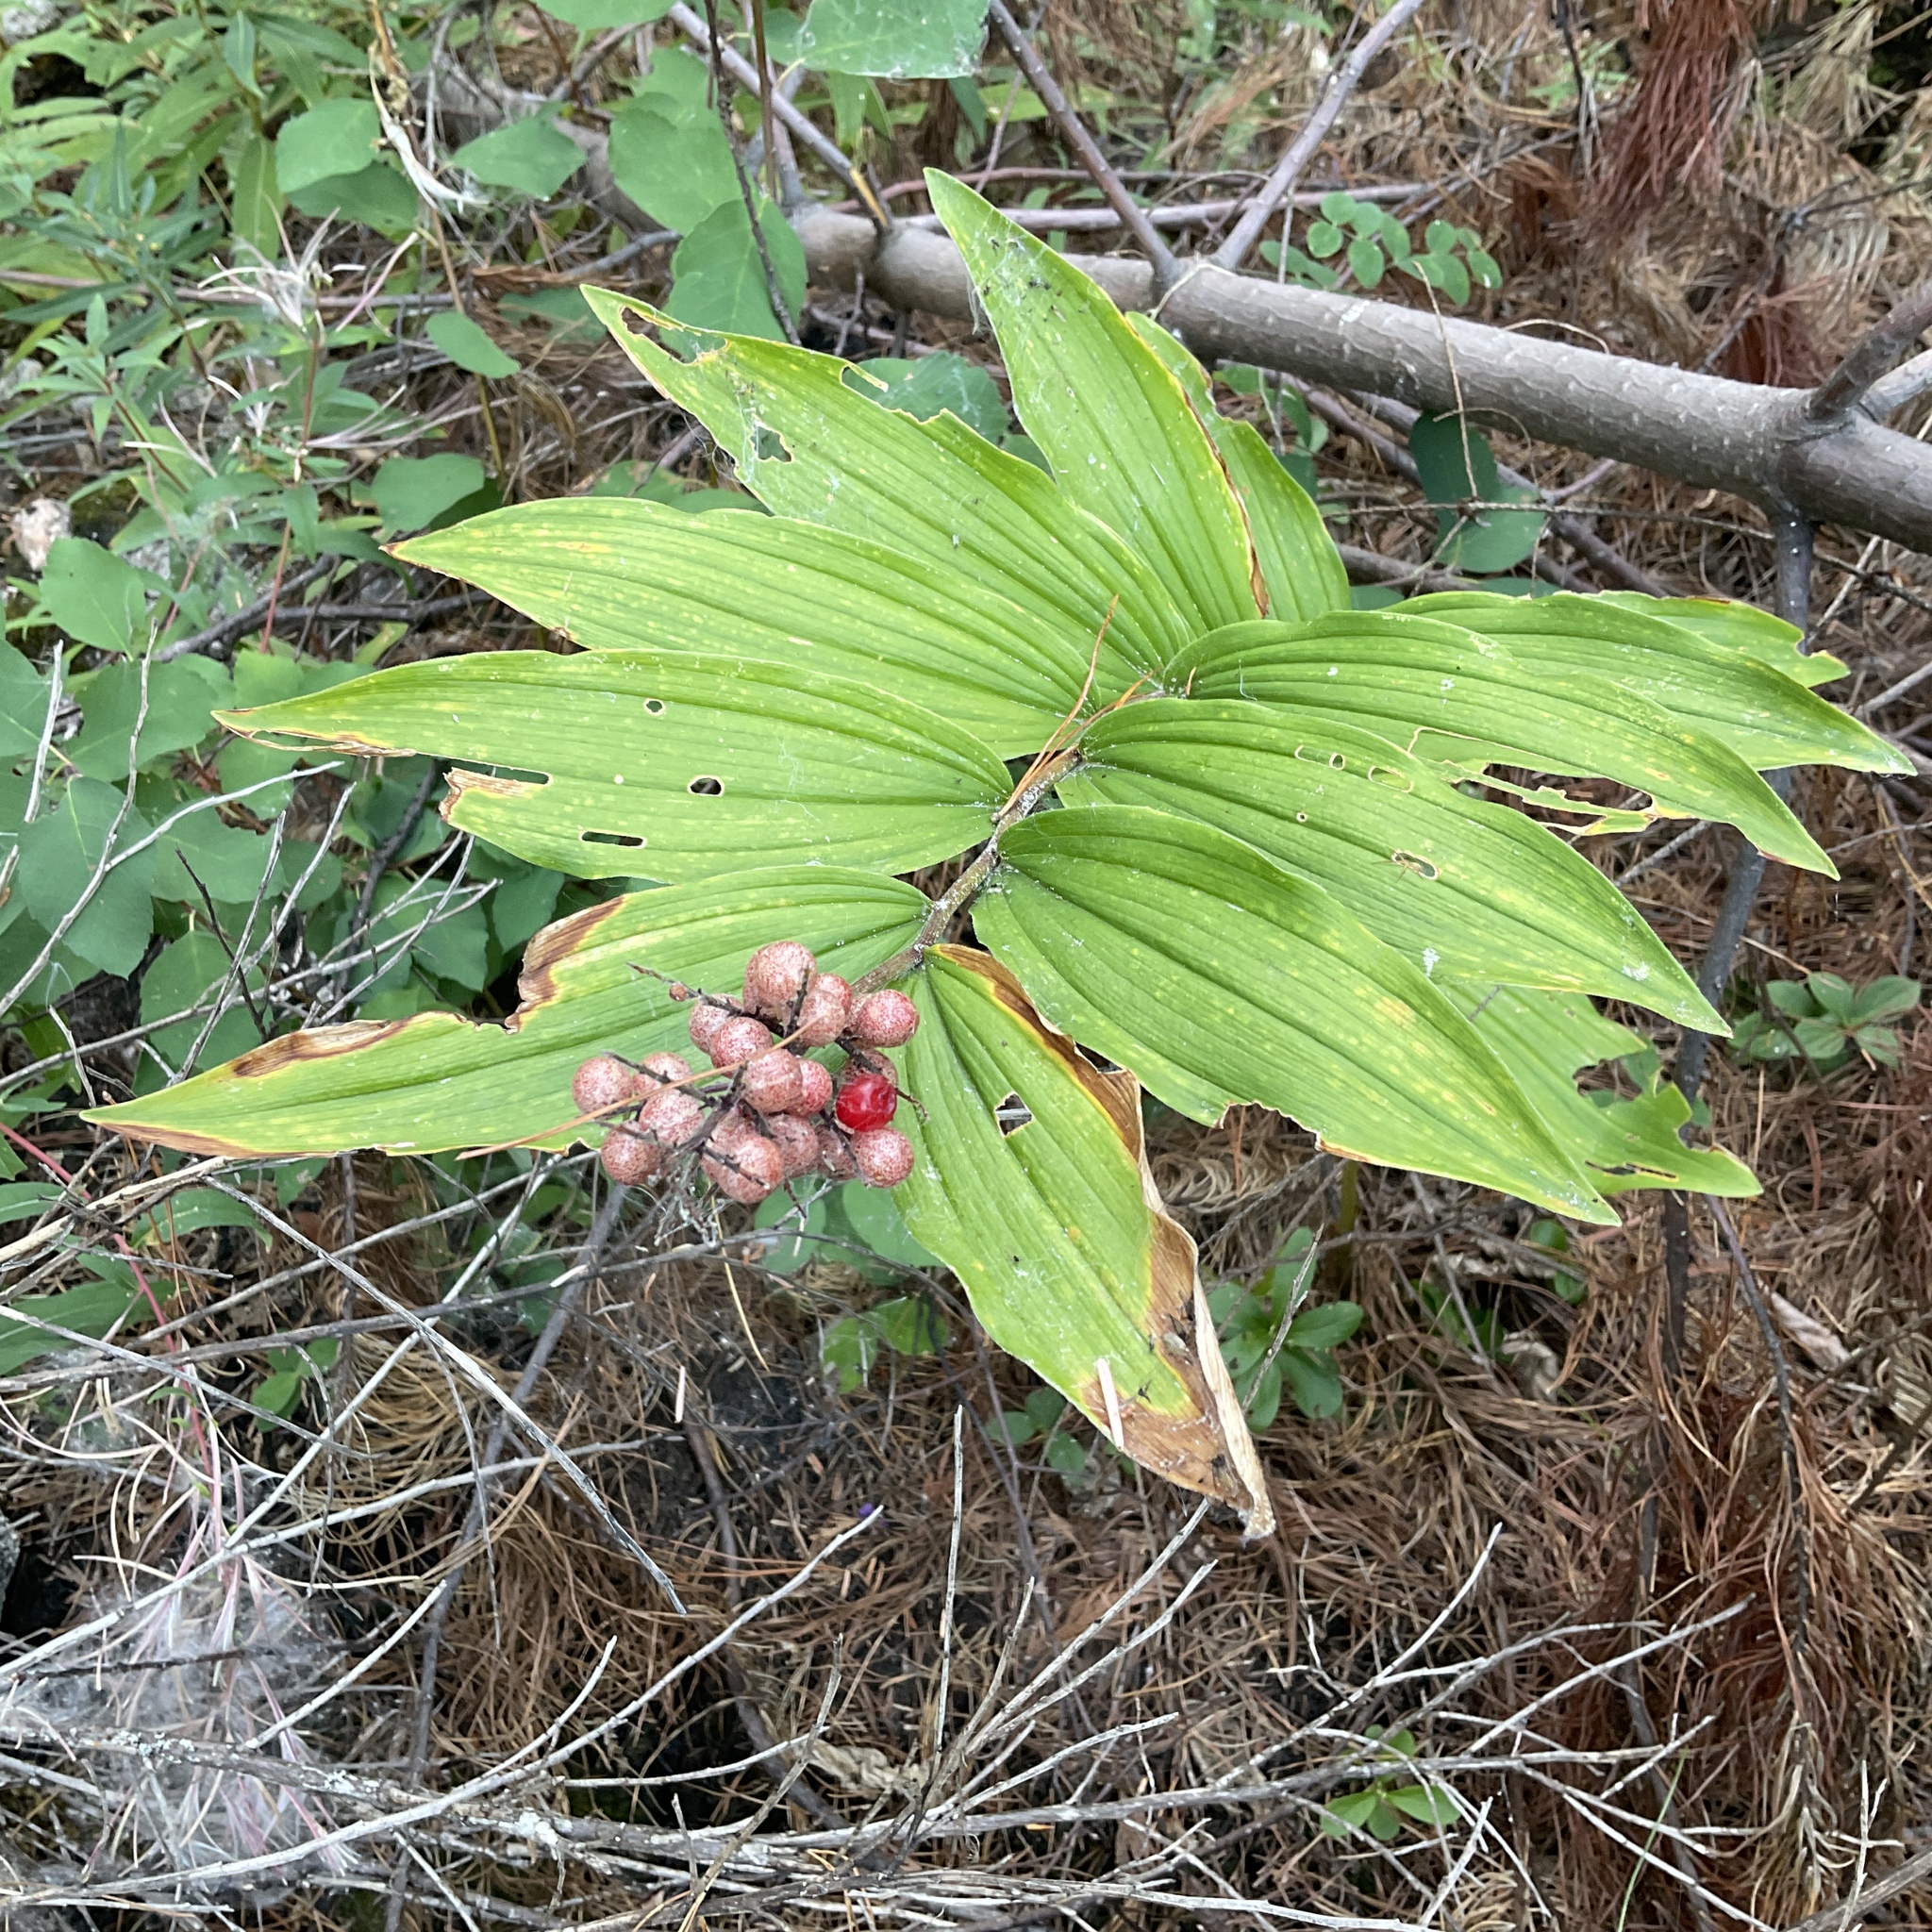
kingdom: Plantae
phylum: Tracheophyta
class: Liliopsida
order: Asparagales
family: Asparagaceae
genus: Maianthemum
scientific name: Maianthemum racemosum
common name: False spikenard
